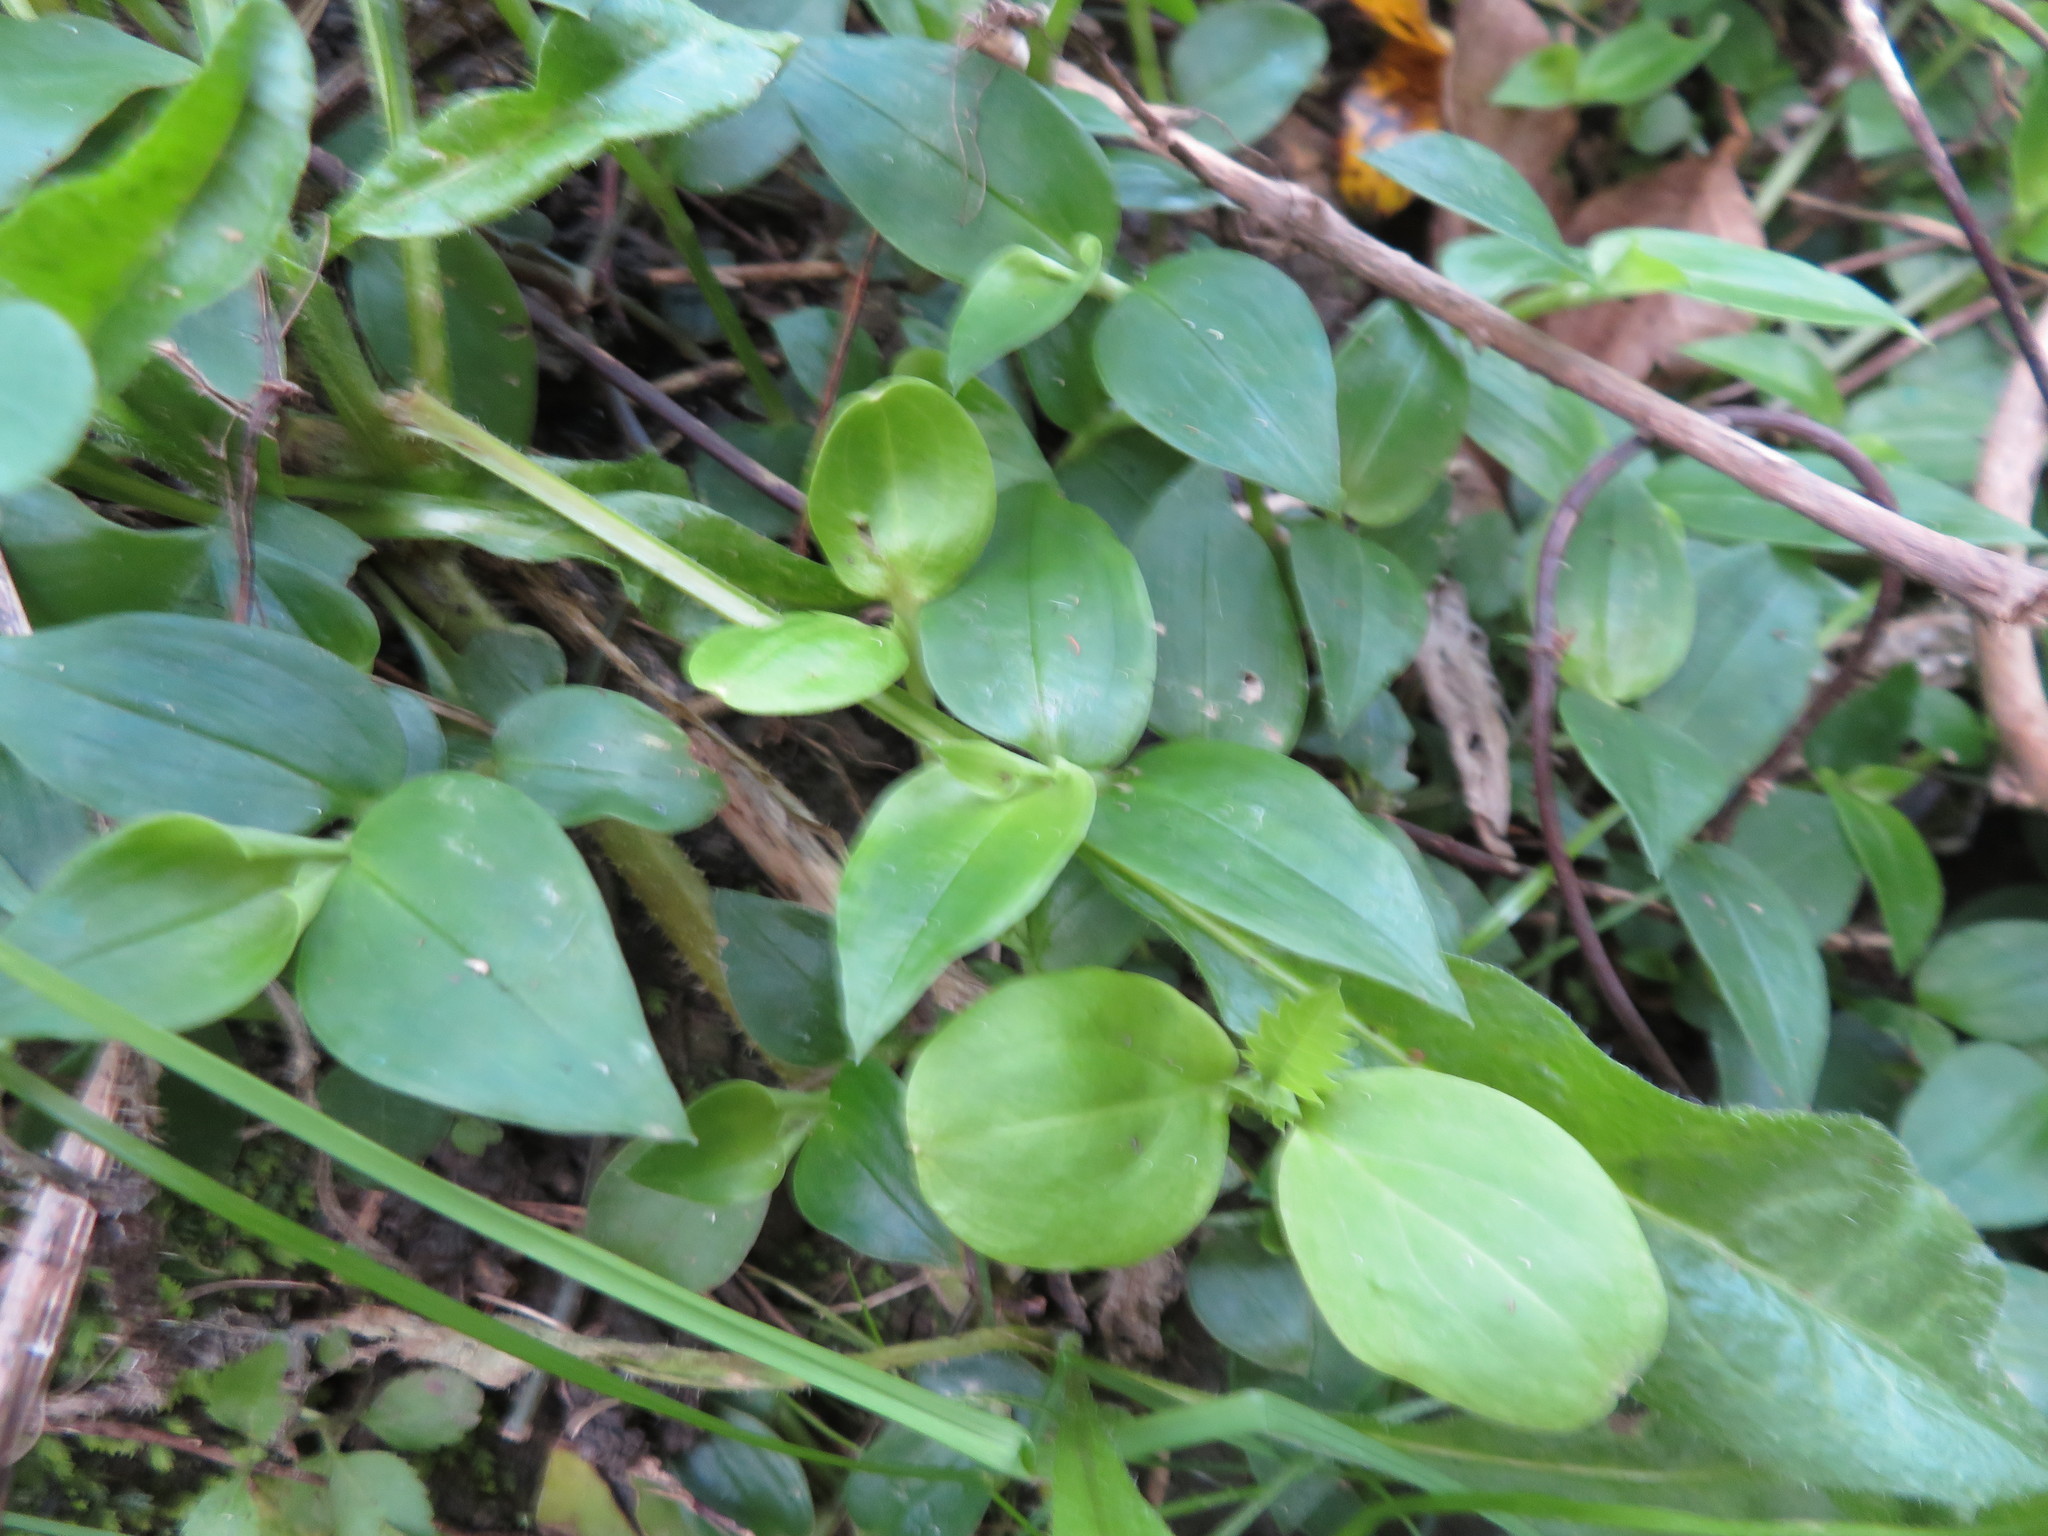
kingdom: Plantae
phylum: Tracheophyta
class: Magnoliopsida
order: Geraniales
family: Melianthaceae
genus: Melianthus
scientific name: Melianthus major
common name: Honey-flower
